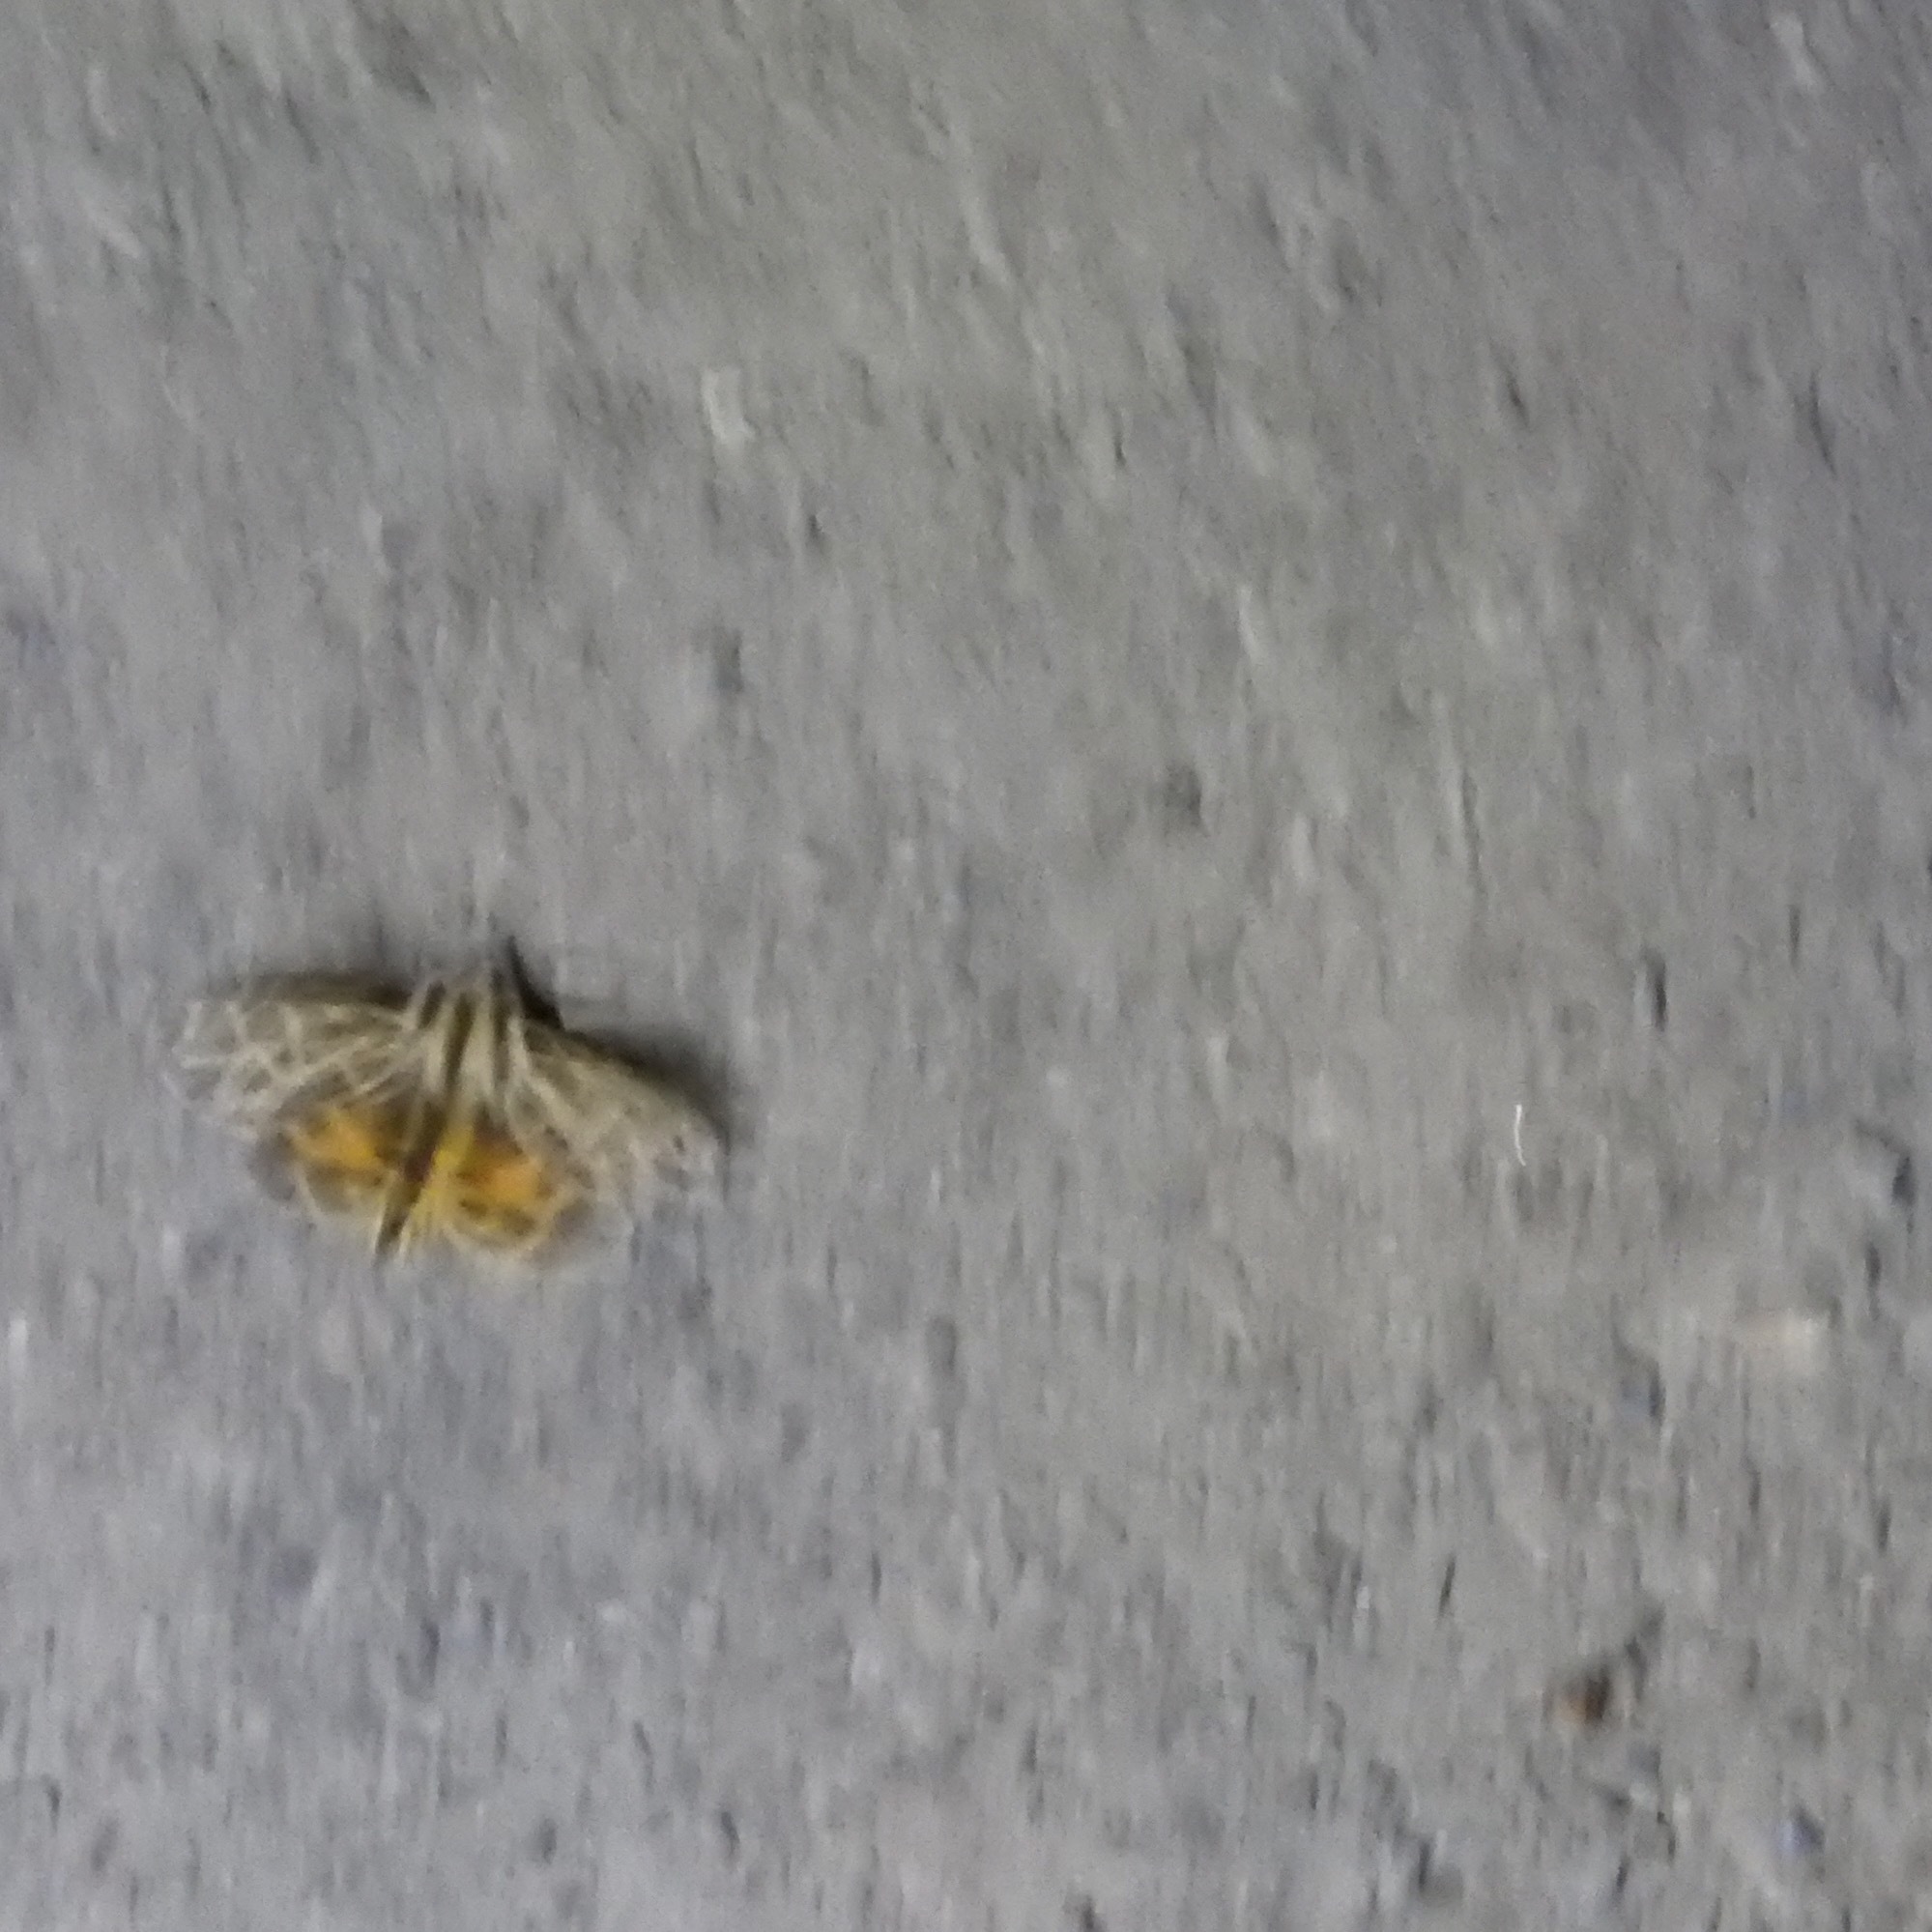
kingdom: Animalia
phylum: Arthropoda
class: Insecta
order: Lepidoptera
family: Erebidae
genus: Apantesis
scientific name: Apantesis
